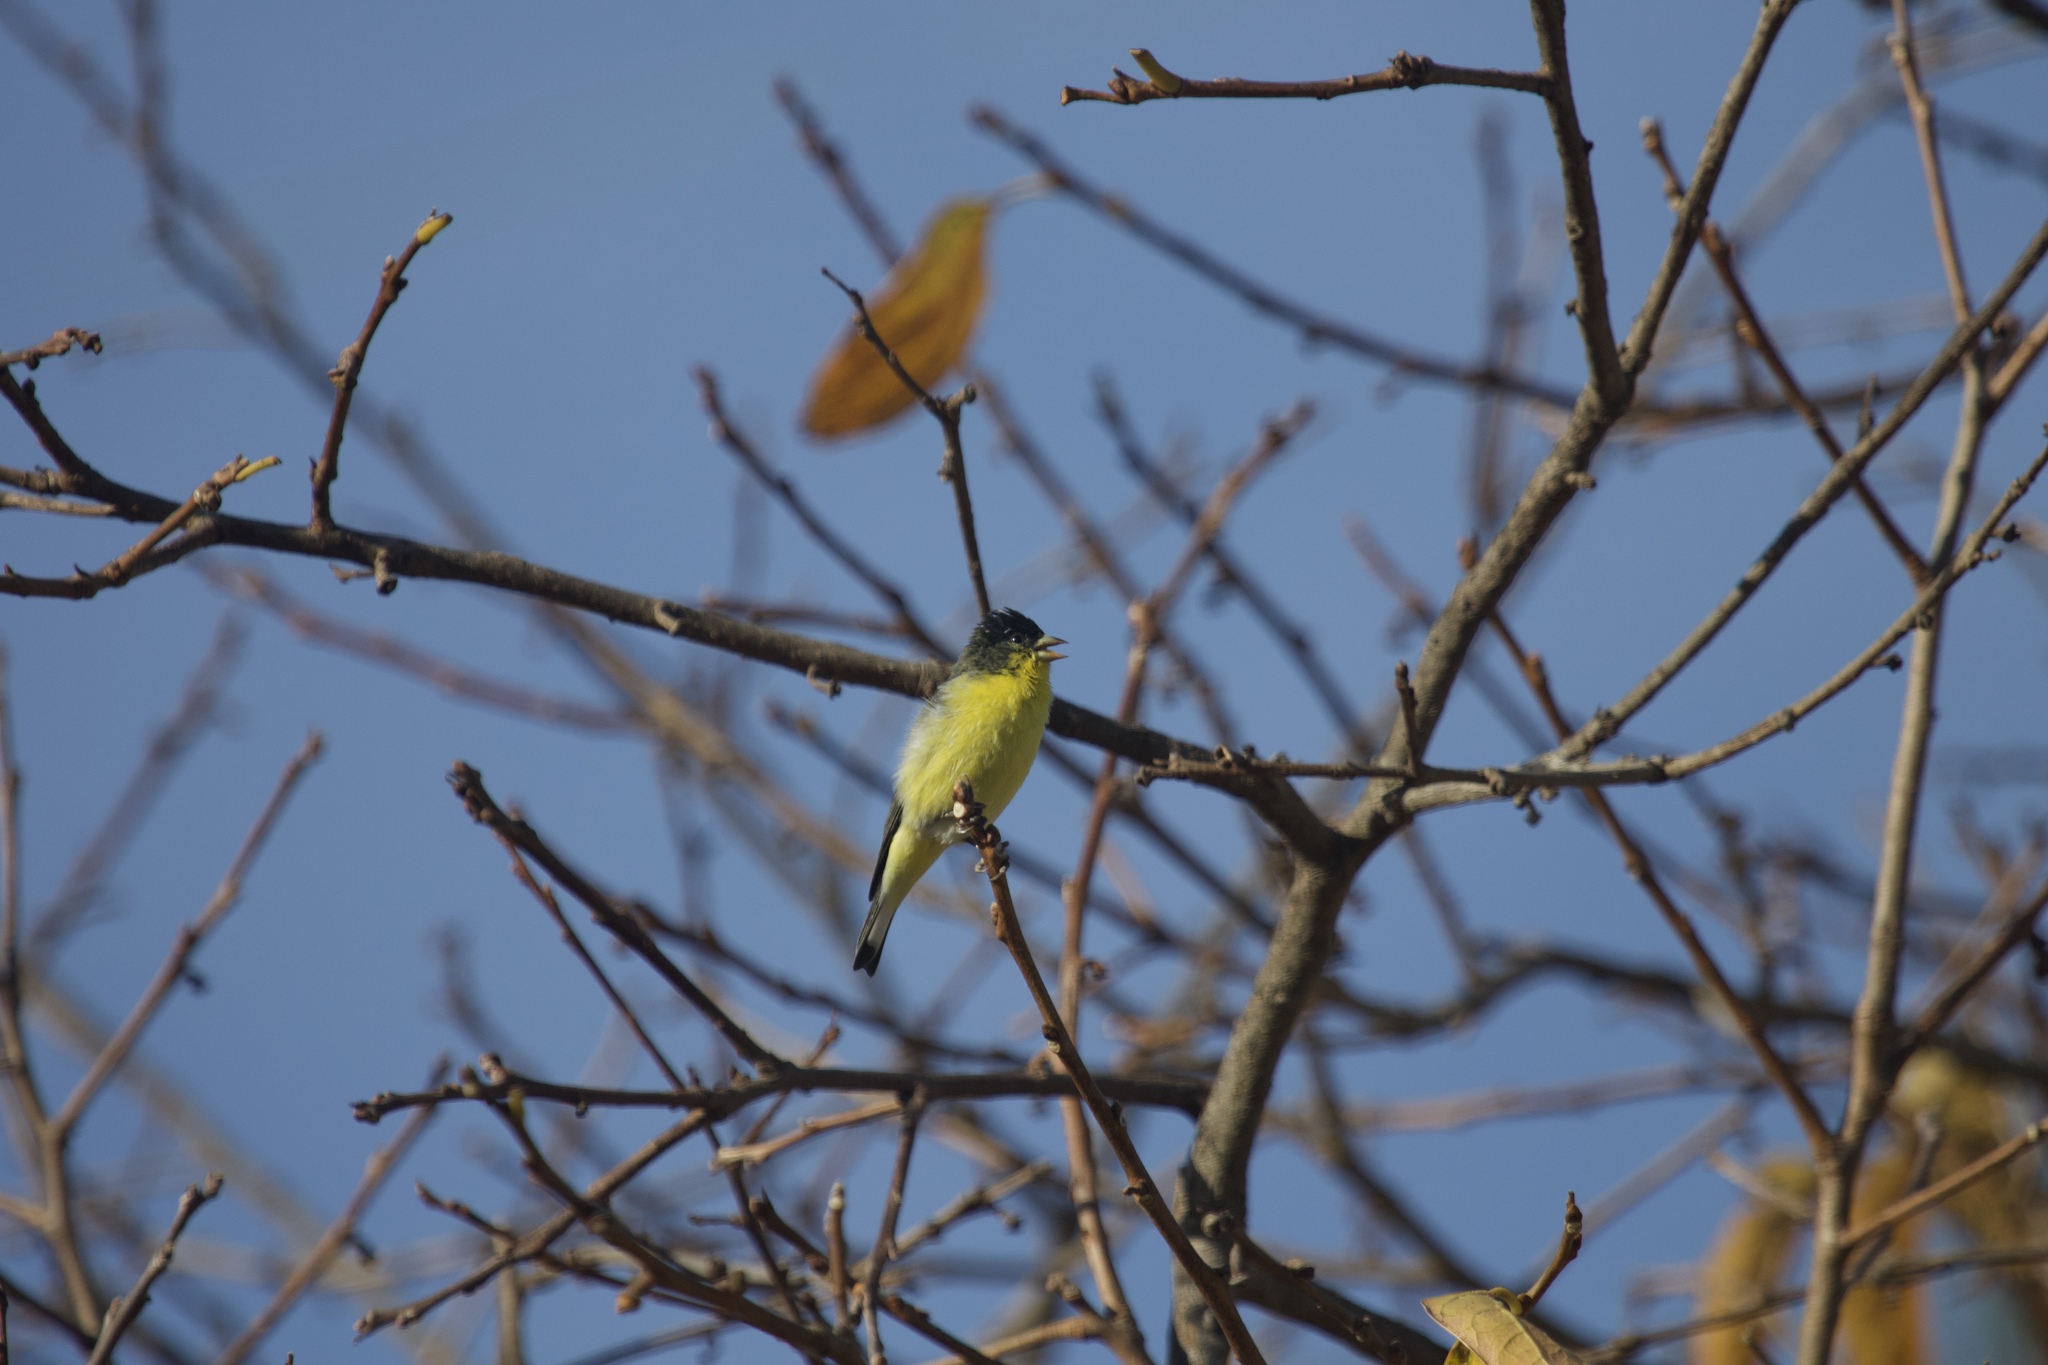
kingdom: Animalia
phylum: Chordata
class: Aves
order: Passeriformes
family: Fringillidae
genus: Spinus
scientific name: Spinus psaltria
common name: Lesser goldfinch
